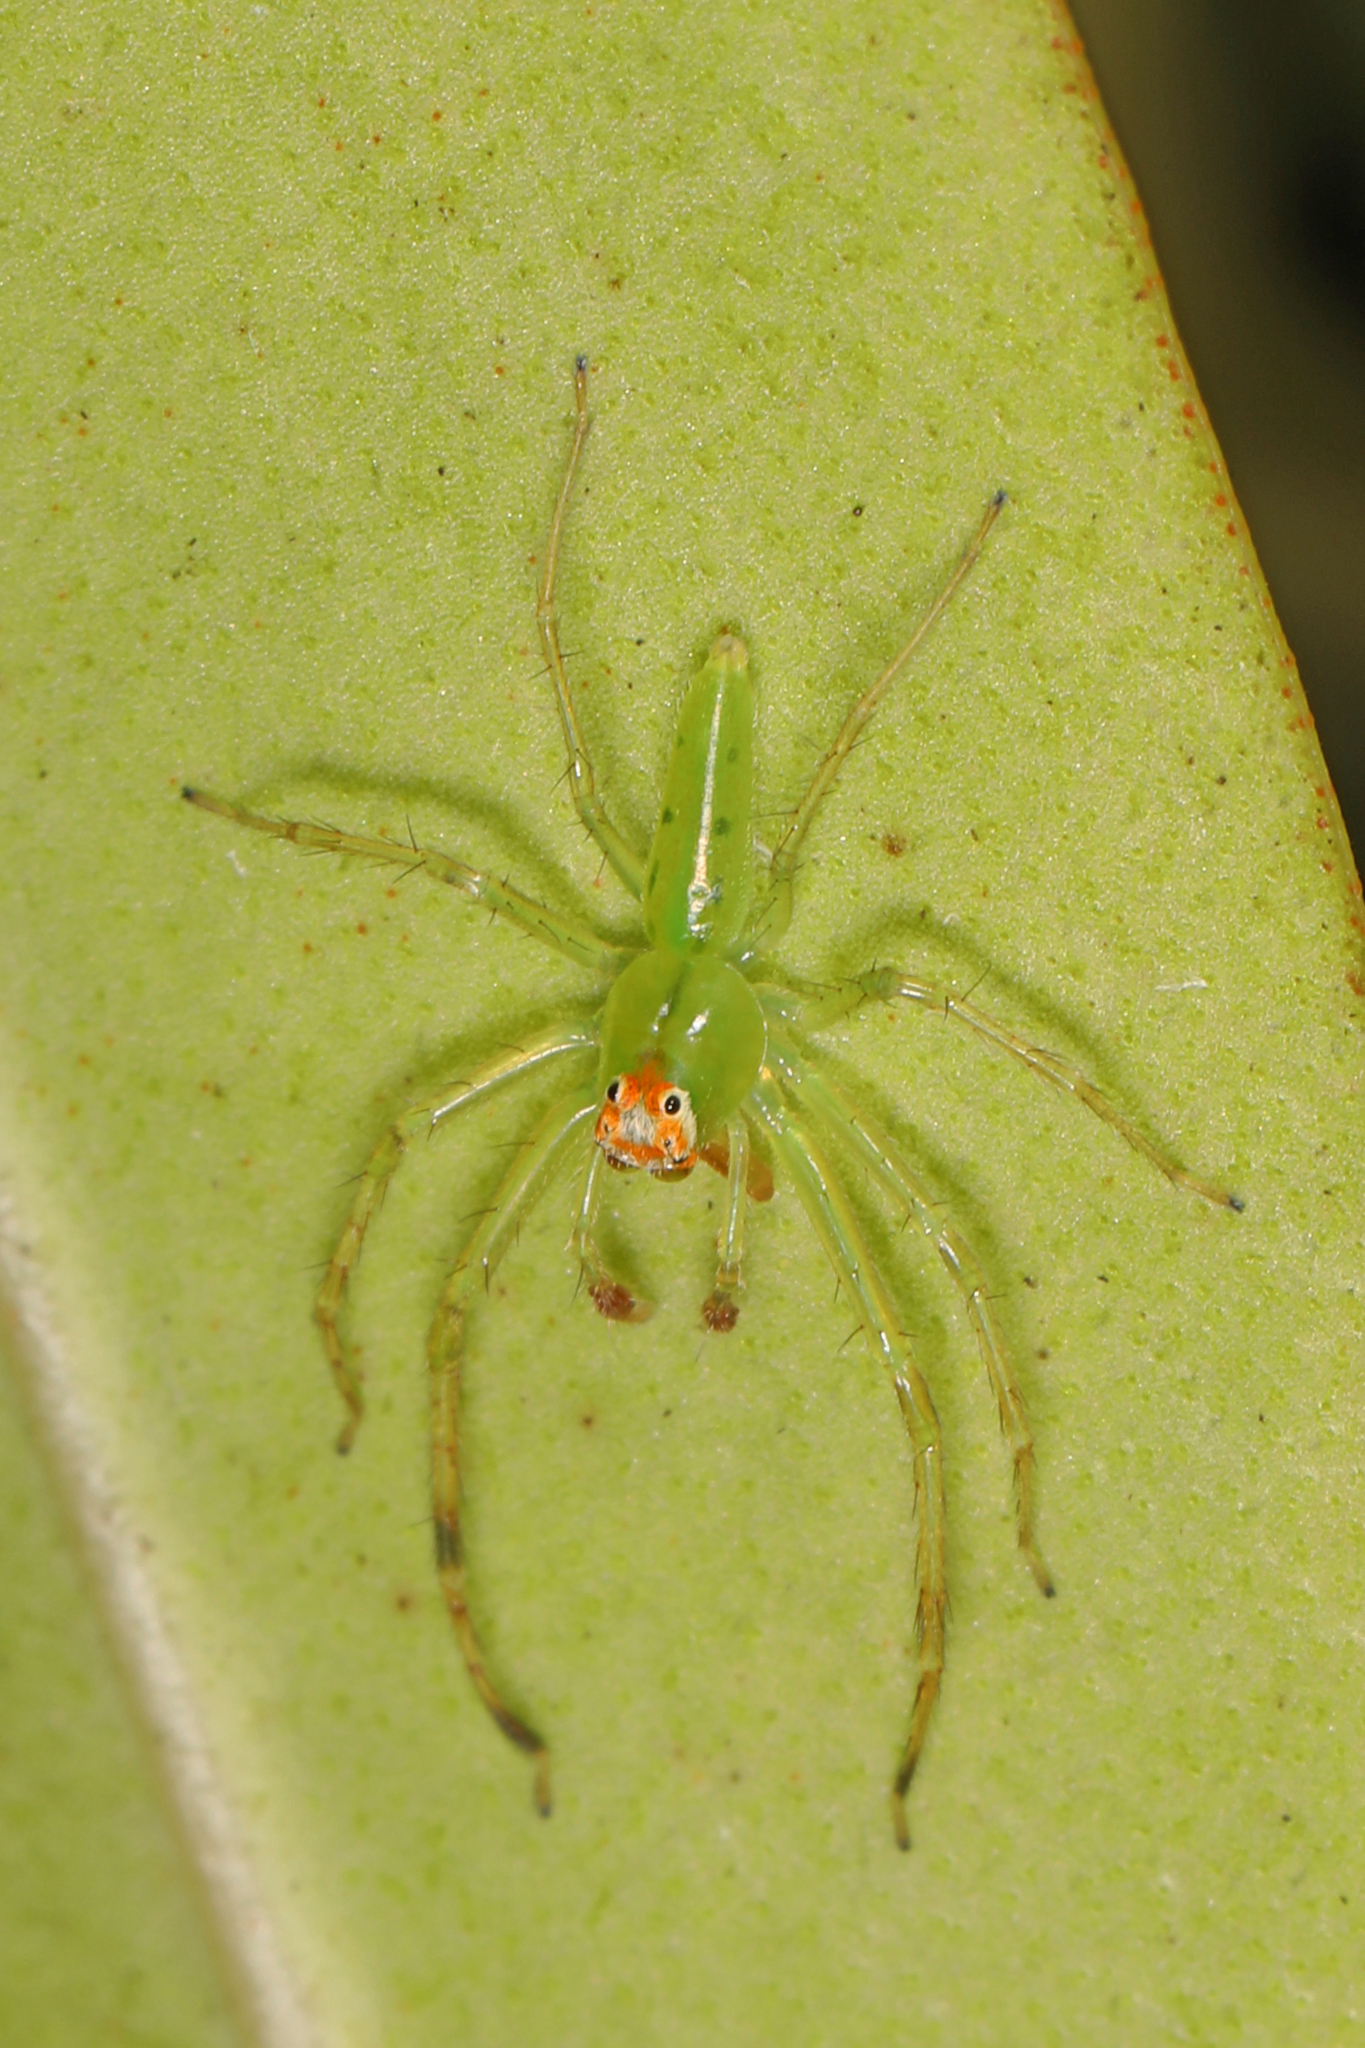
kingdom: Animalia
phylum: Arthropoda
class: Arachnida
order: Araneae
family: Salticidae
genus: Lyssomanes
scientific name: Lyssomanes viridis
